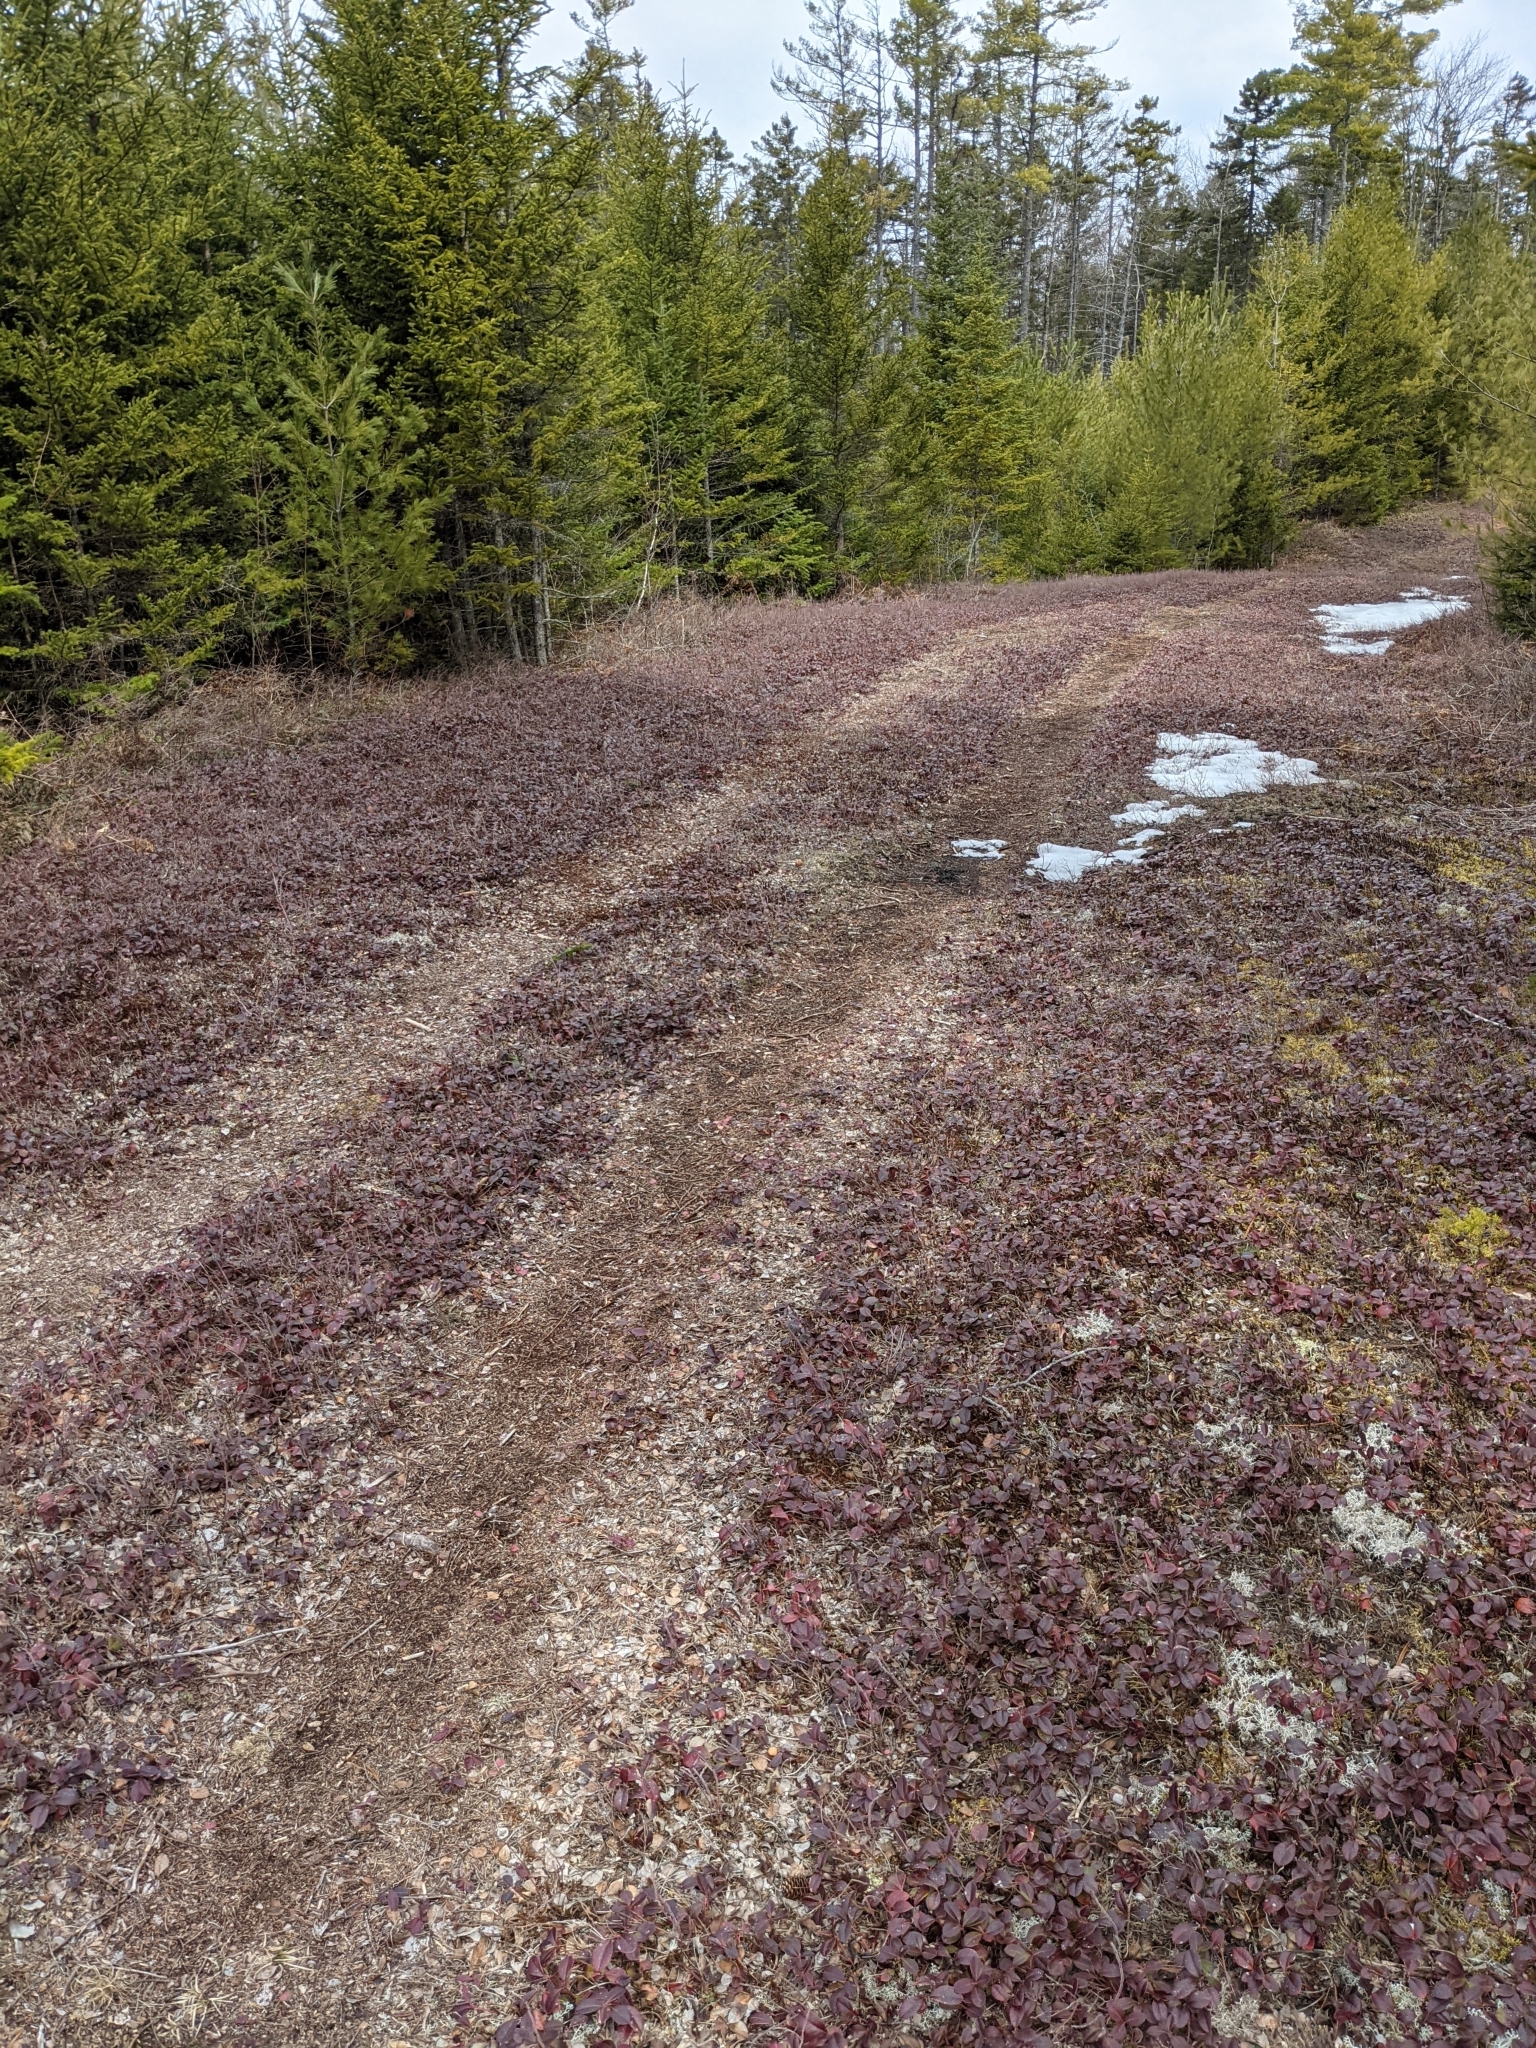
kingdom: Plantae
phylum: Tracheophyta
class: Magnoliopsida
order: Ericales
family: Ericaceae
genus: Gaultheria
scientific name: Gaultheria procumbens
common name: Checkerberry
